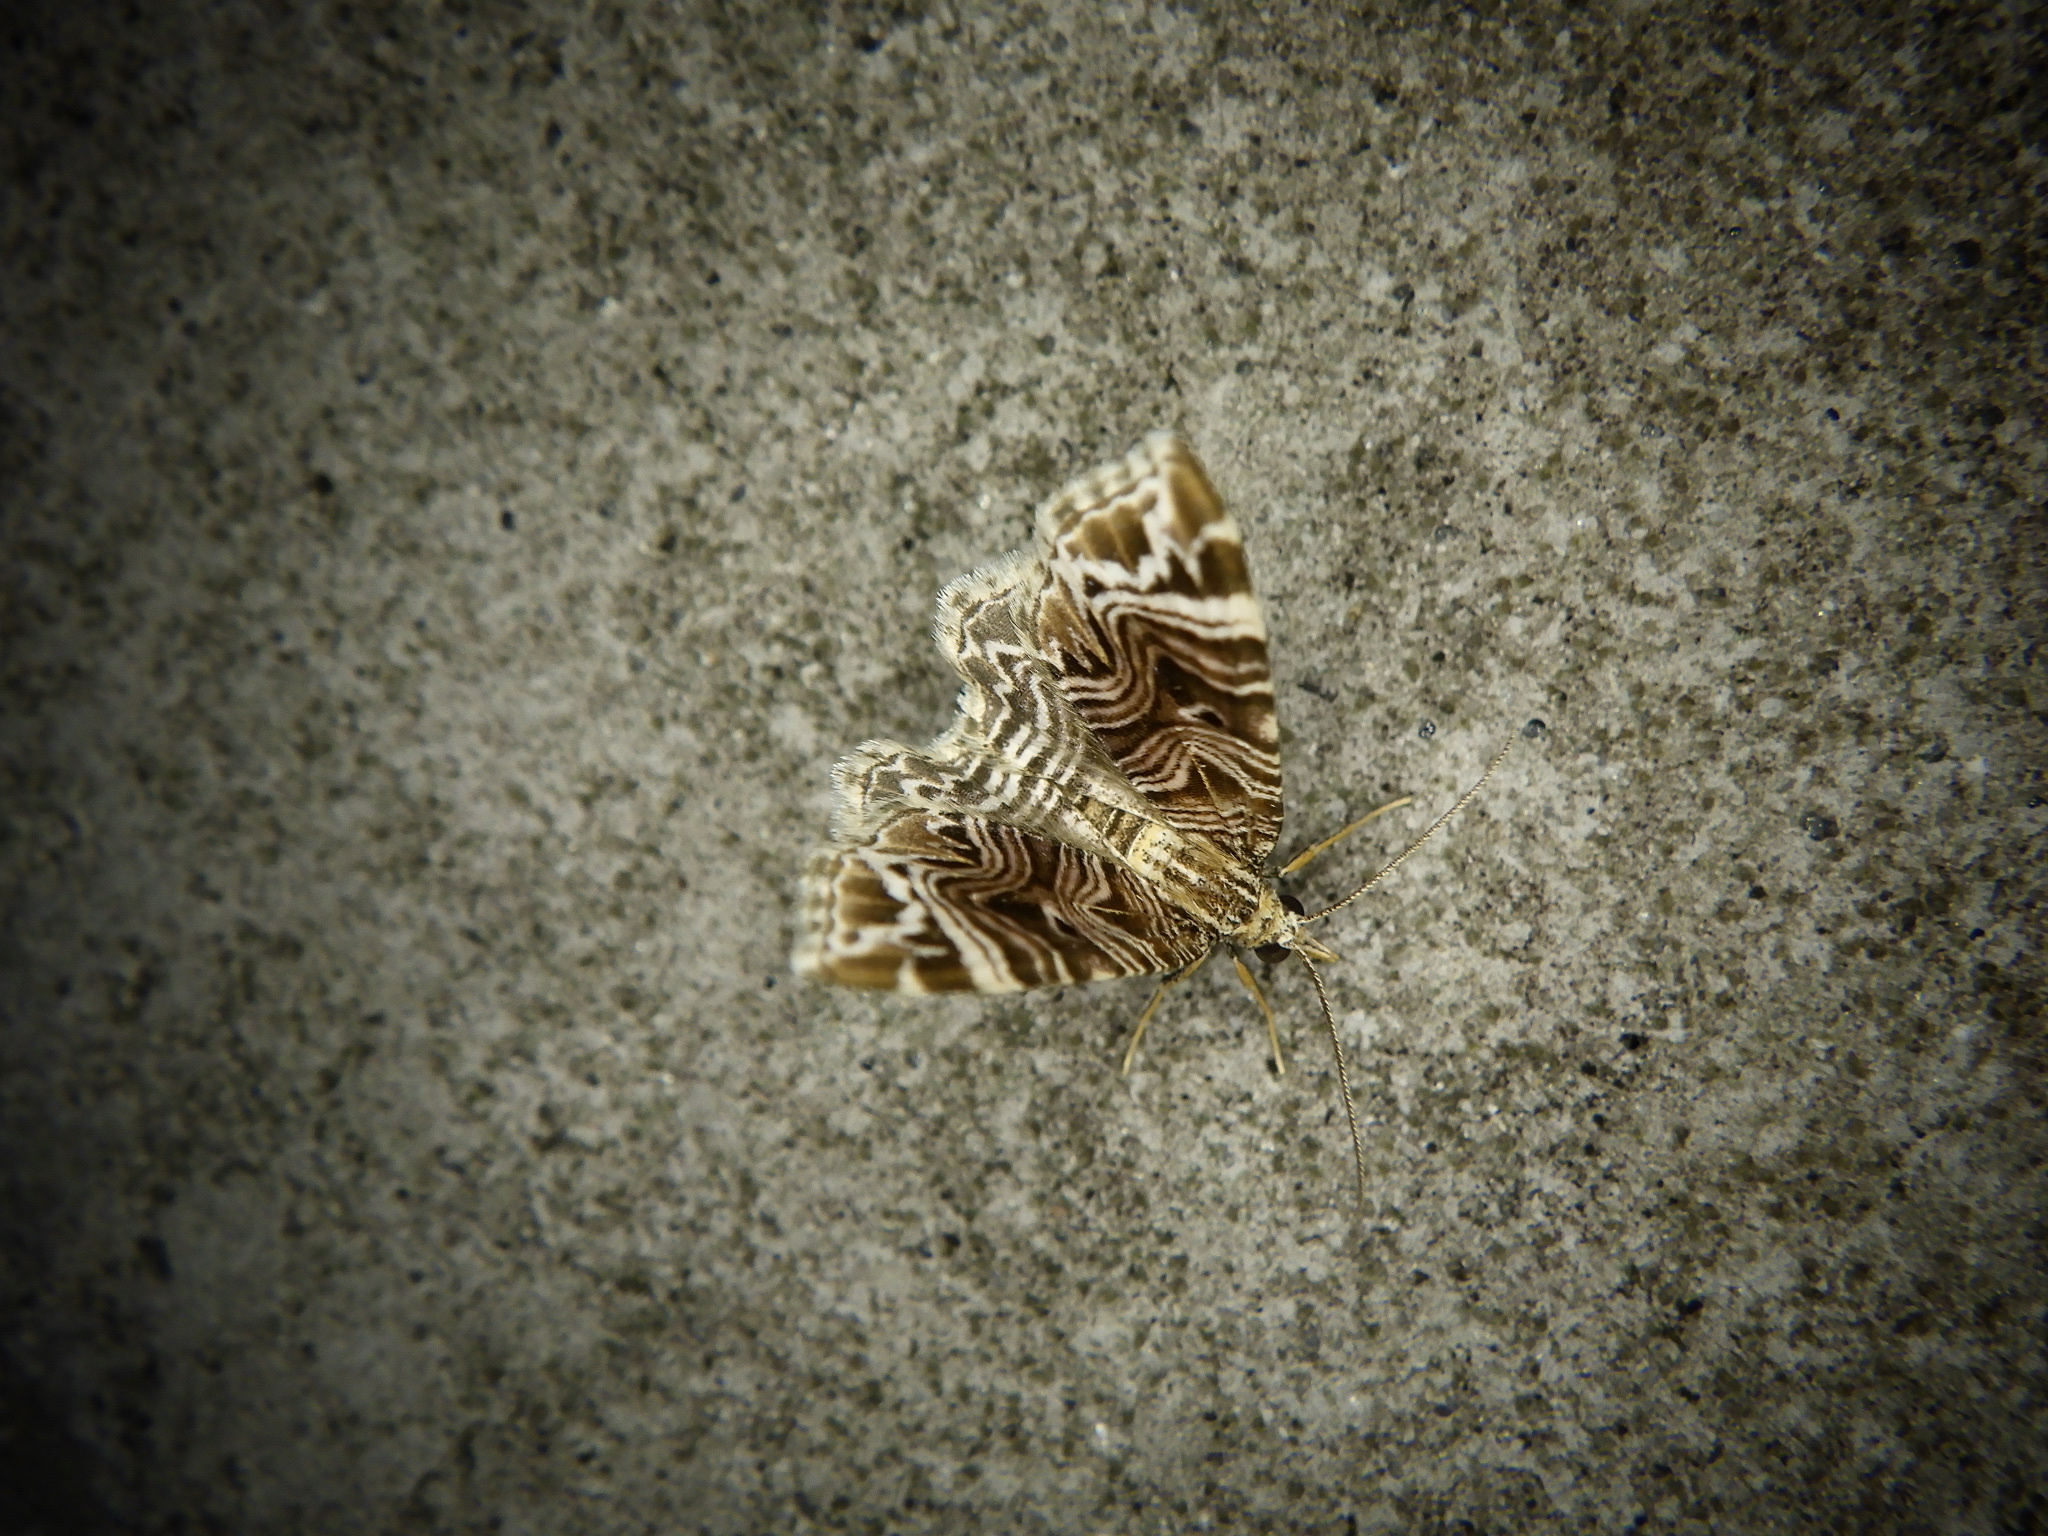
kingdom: Animalia
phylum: Arthropoda
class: Insecta
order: Lepidoptera
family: Geometridae
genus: Microlygris
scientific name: Microlygris multistriata
